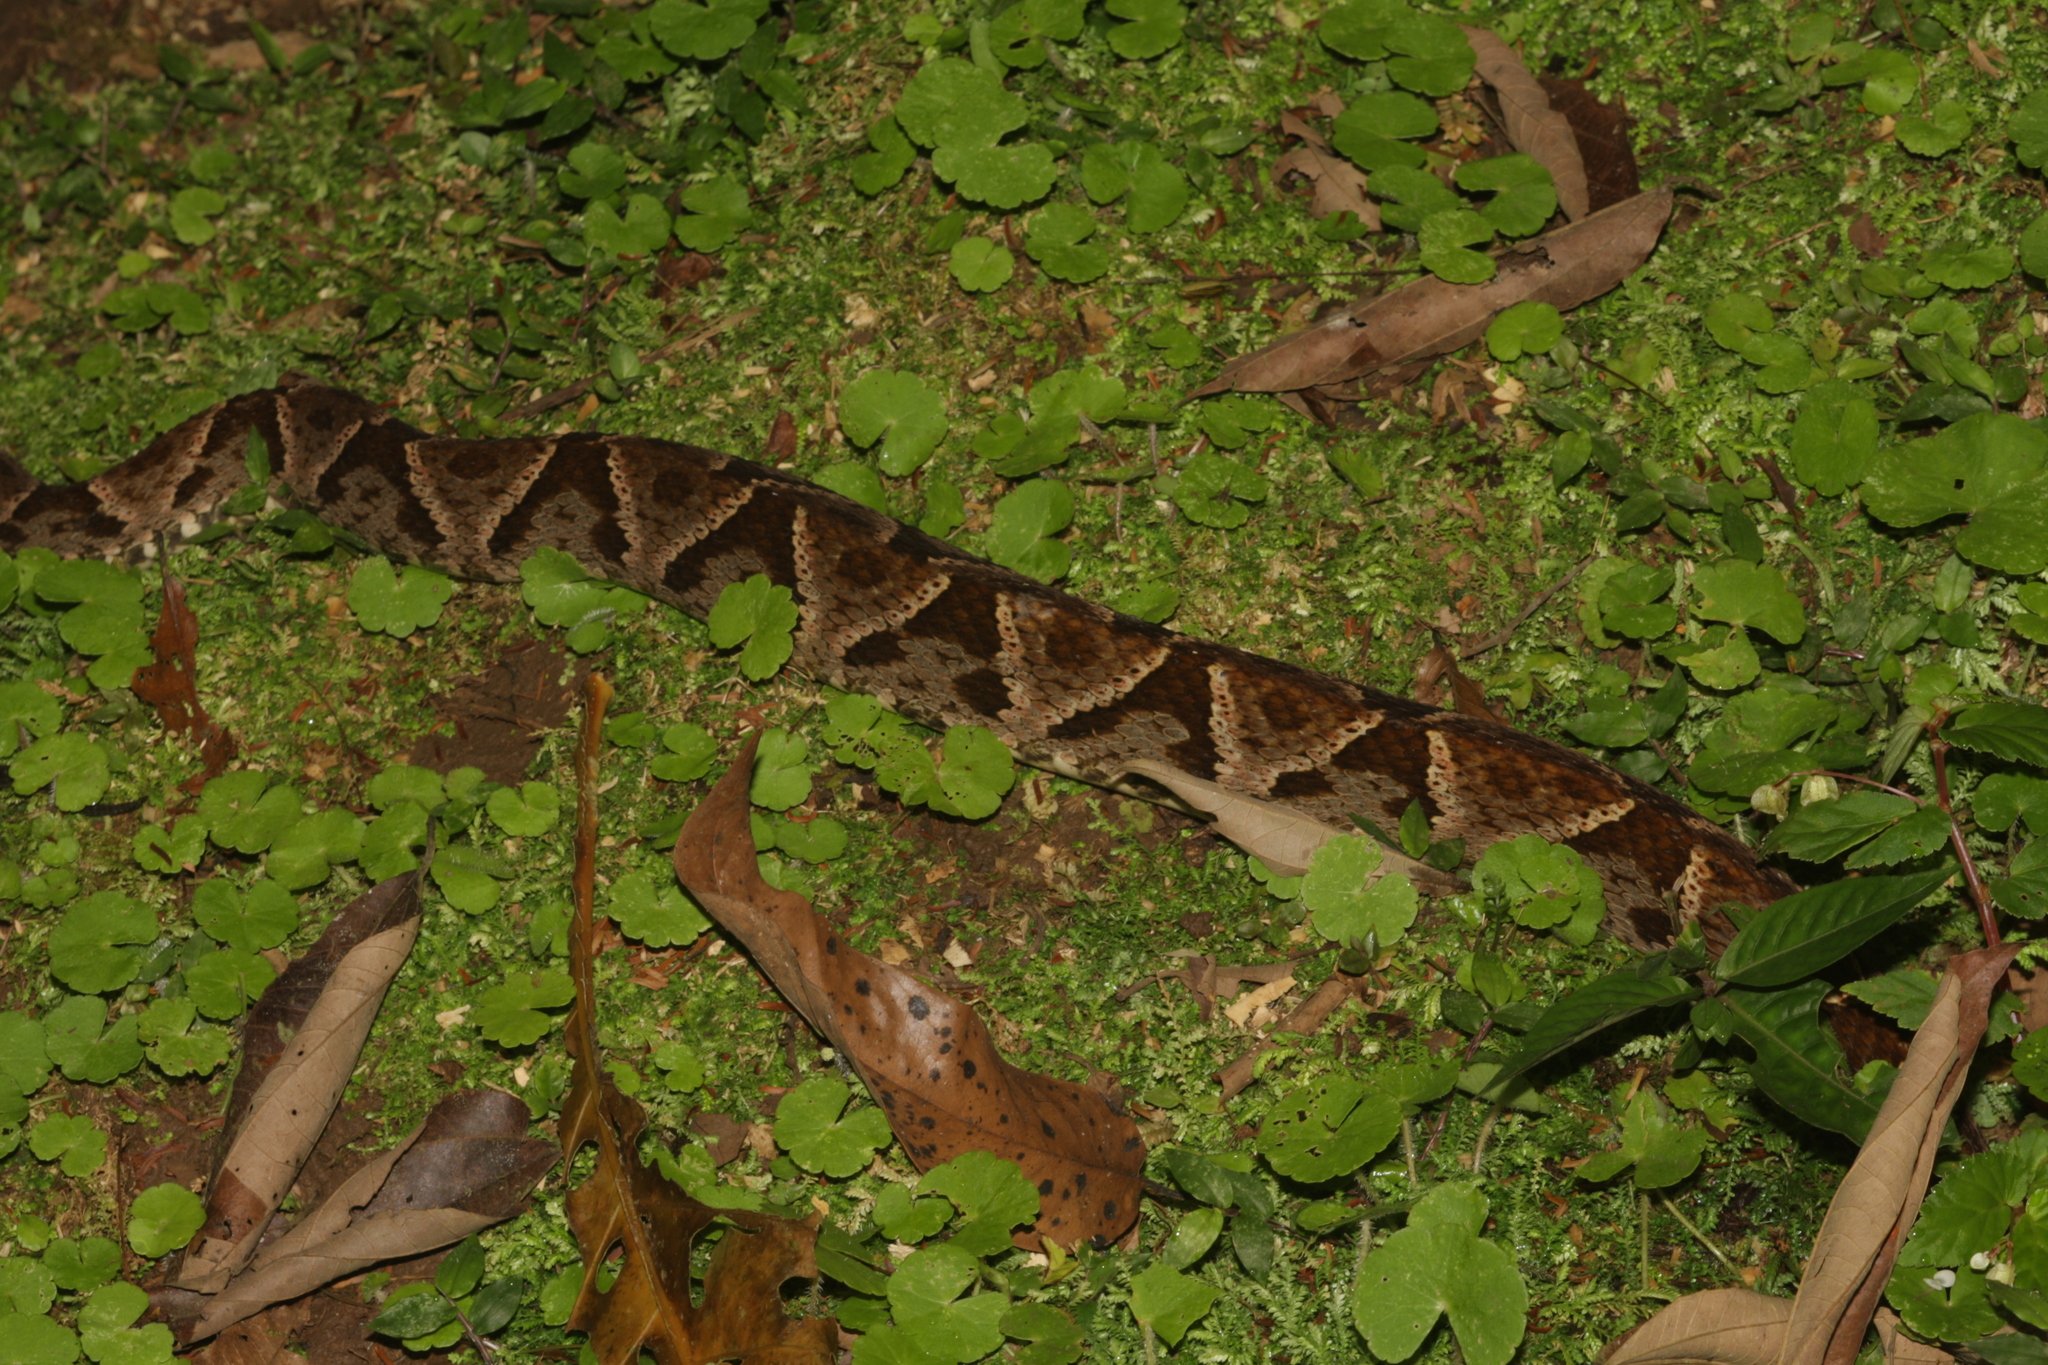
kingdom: Animalia
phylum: Chordata
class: Squamata
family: Viperidae
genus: Bothrops
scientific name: Bothrops asper
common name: Terciopelo
